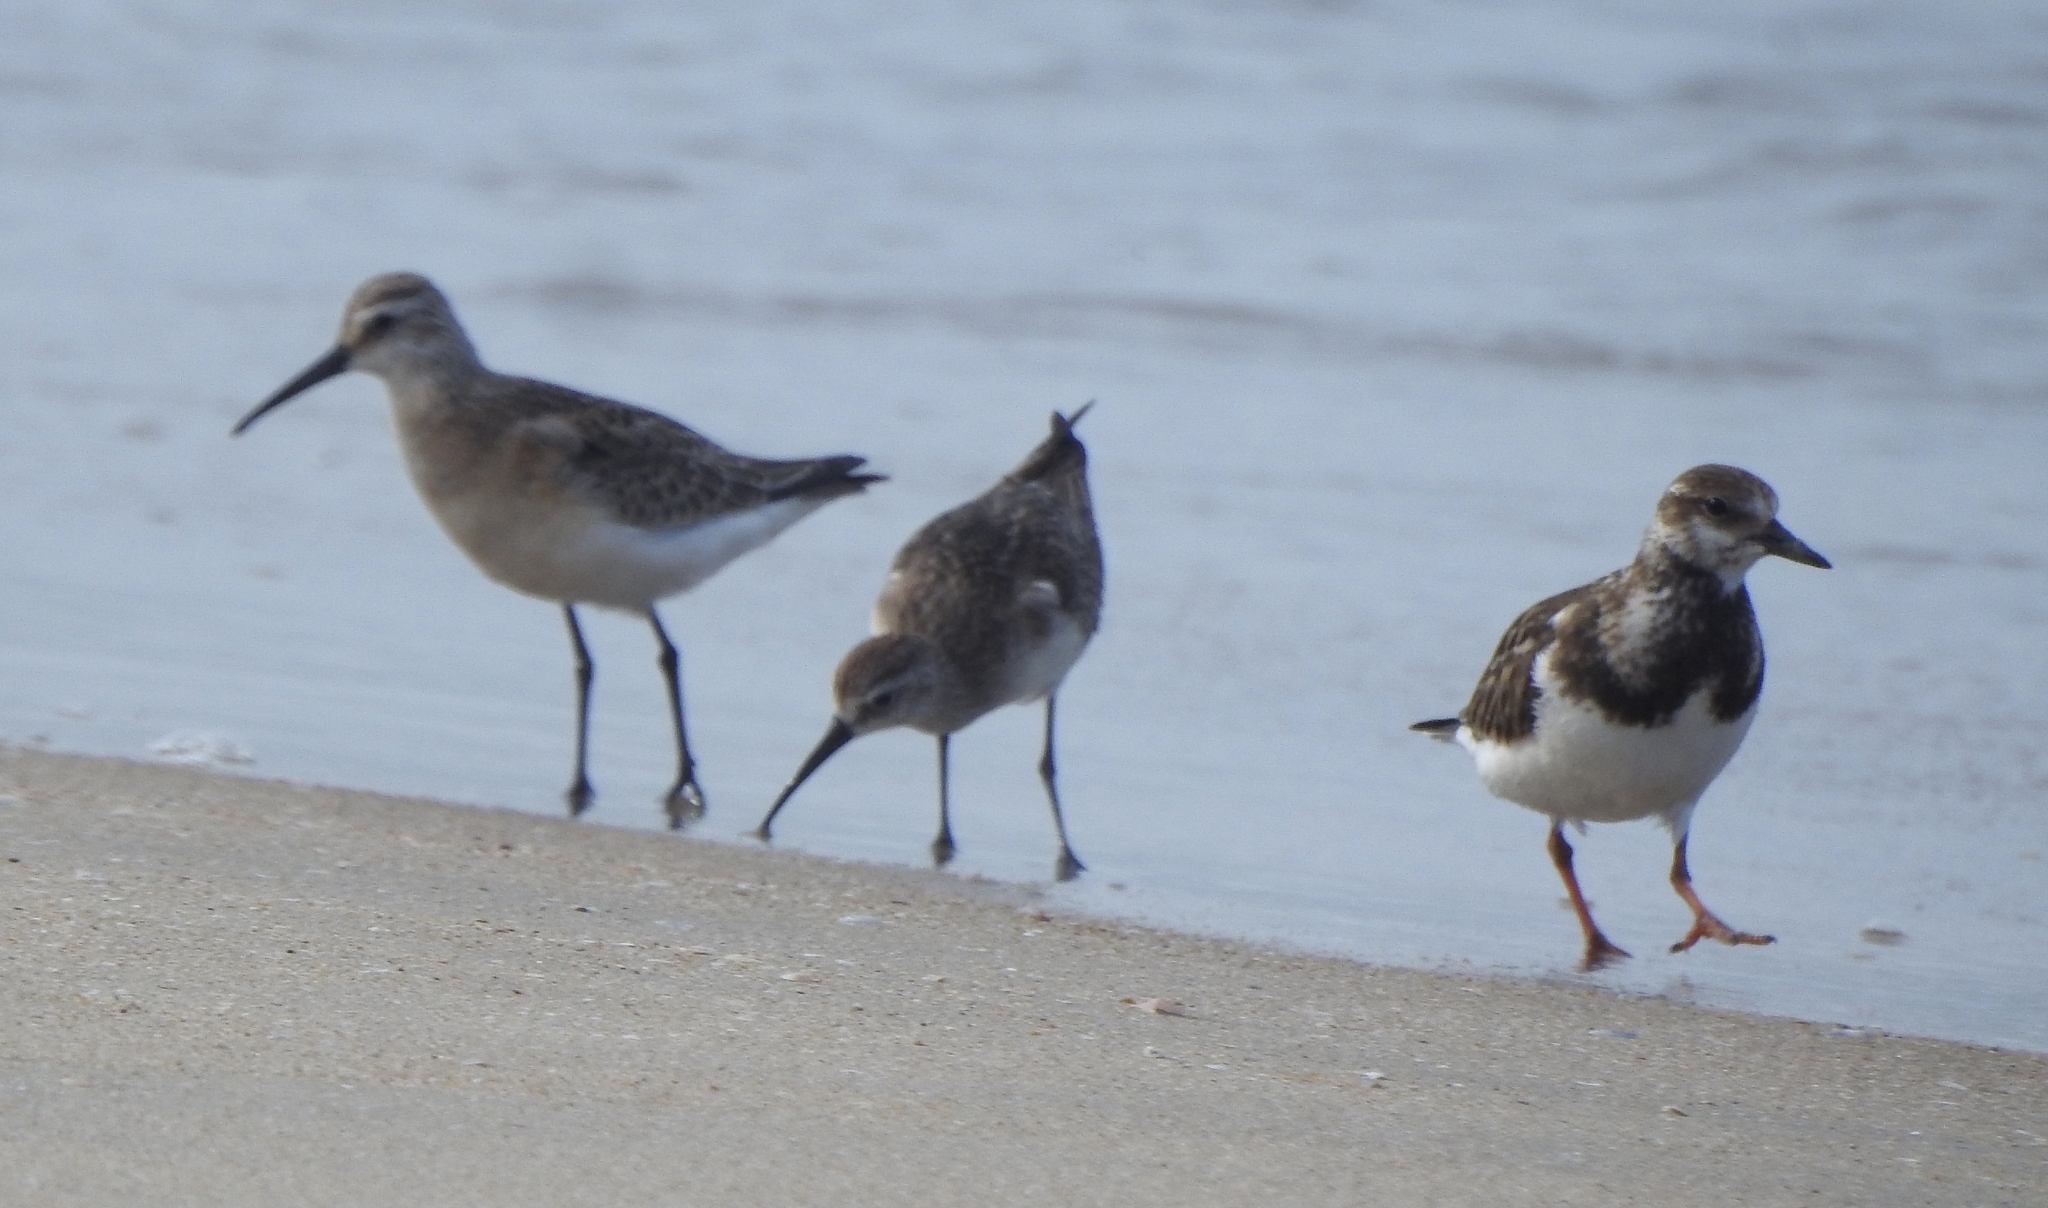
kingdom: Animalia
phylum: Chordata
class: Aves
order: Charadriiformes
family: Scolopacidae
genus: Arenaria
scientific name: Arenaria interpres
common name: Ruddy turnstone
